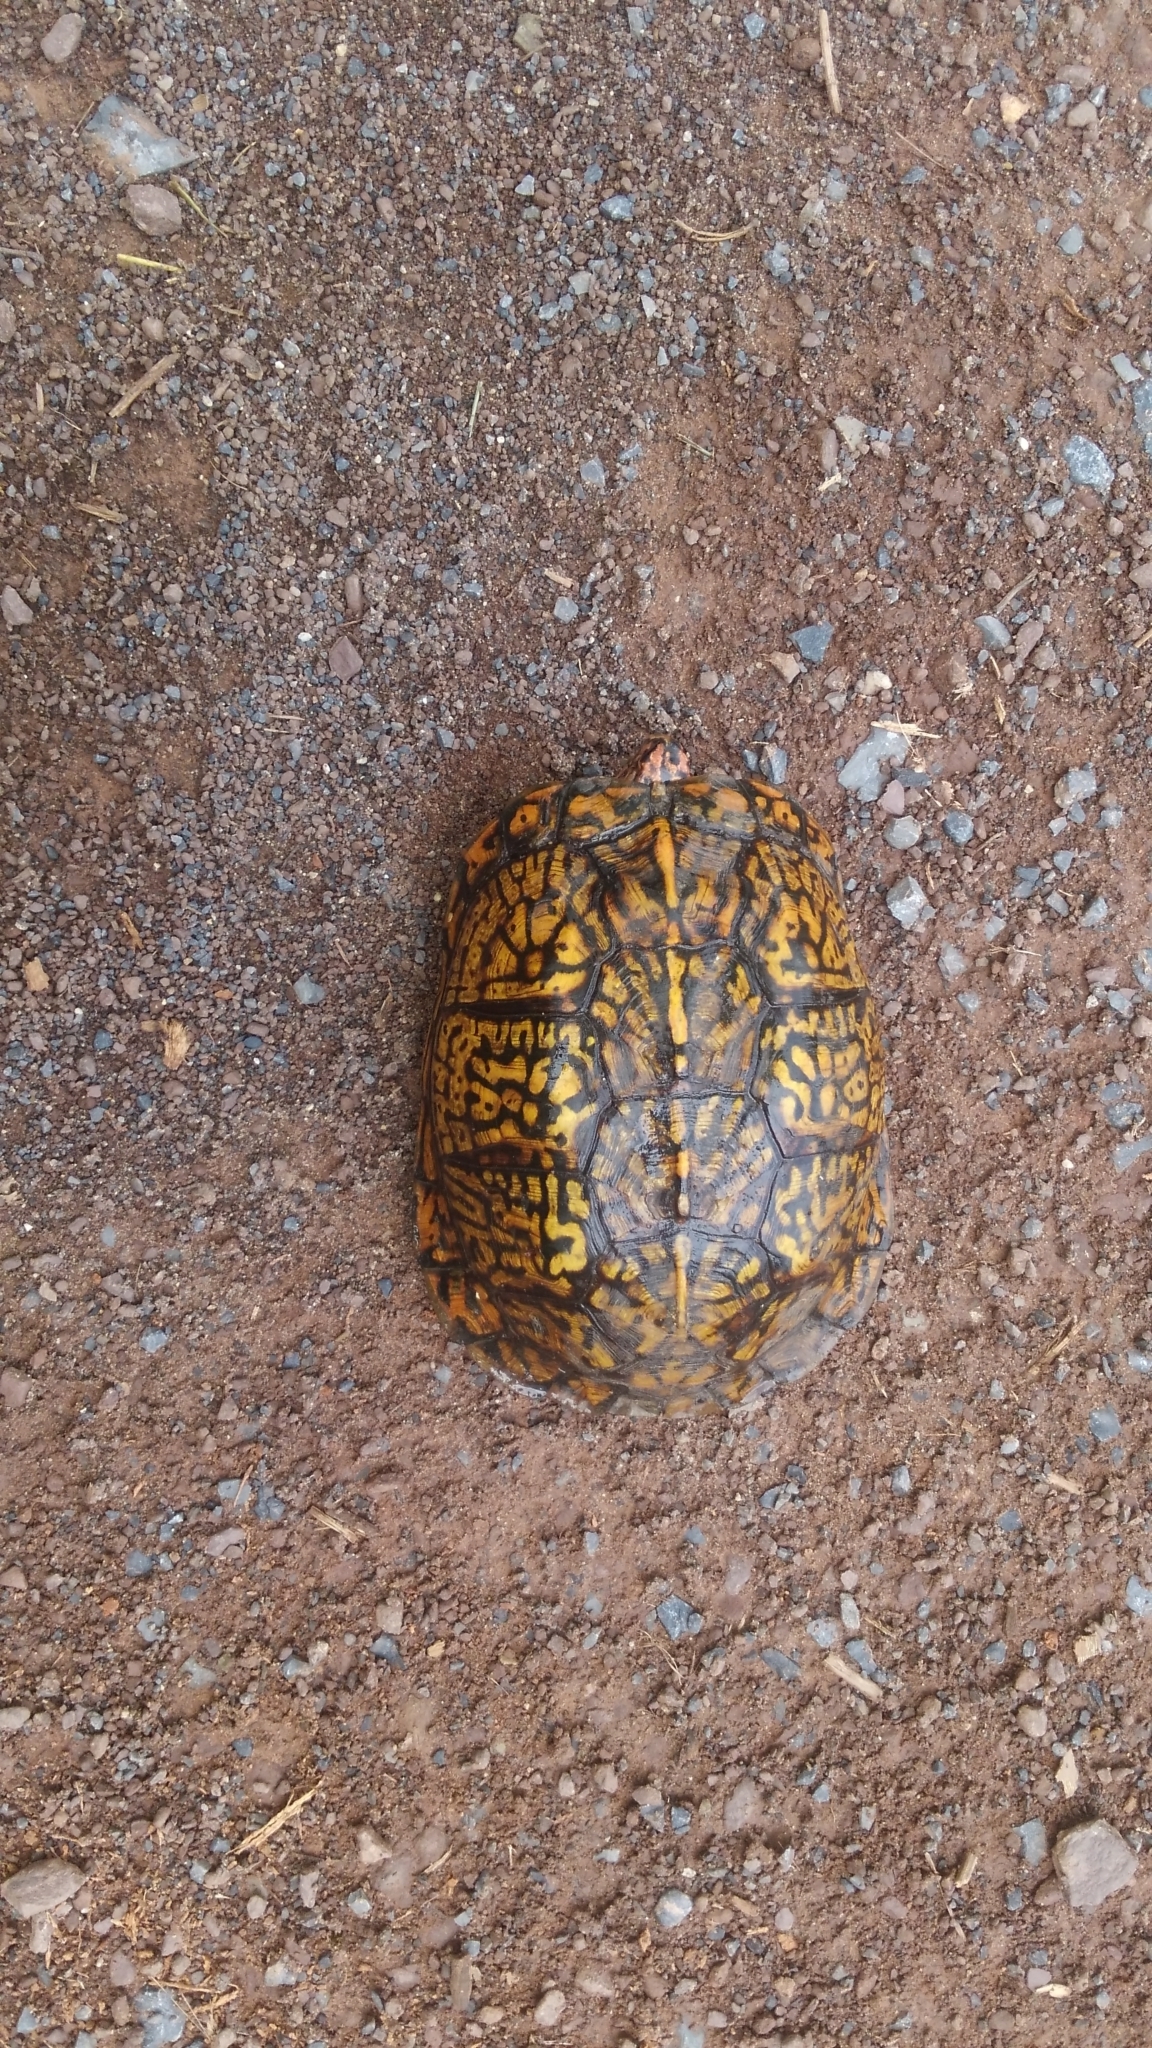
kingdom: Animalia
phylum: Chordata
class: Testudines
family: Emydidae
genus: Terrapene
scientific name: Terrapene carolina
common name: Common box turtle
